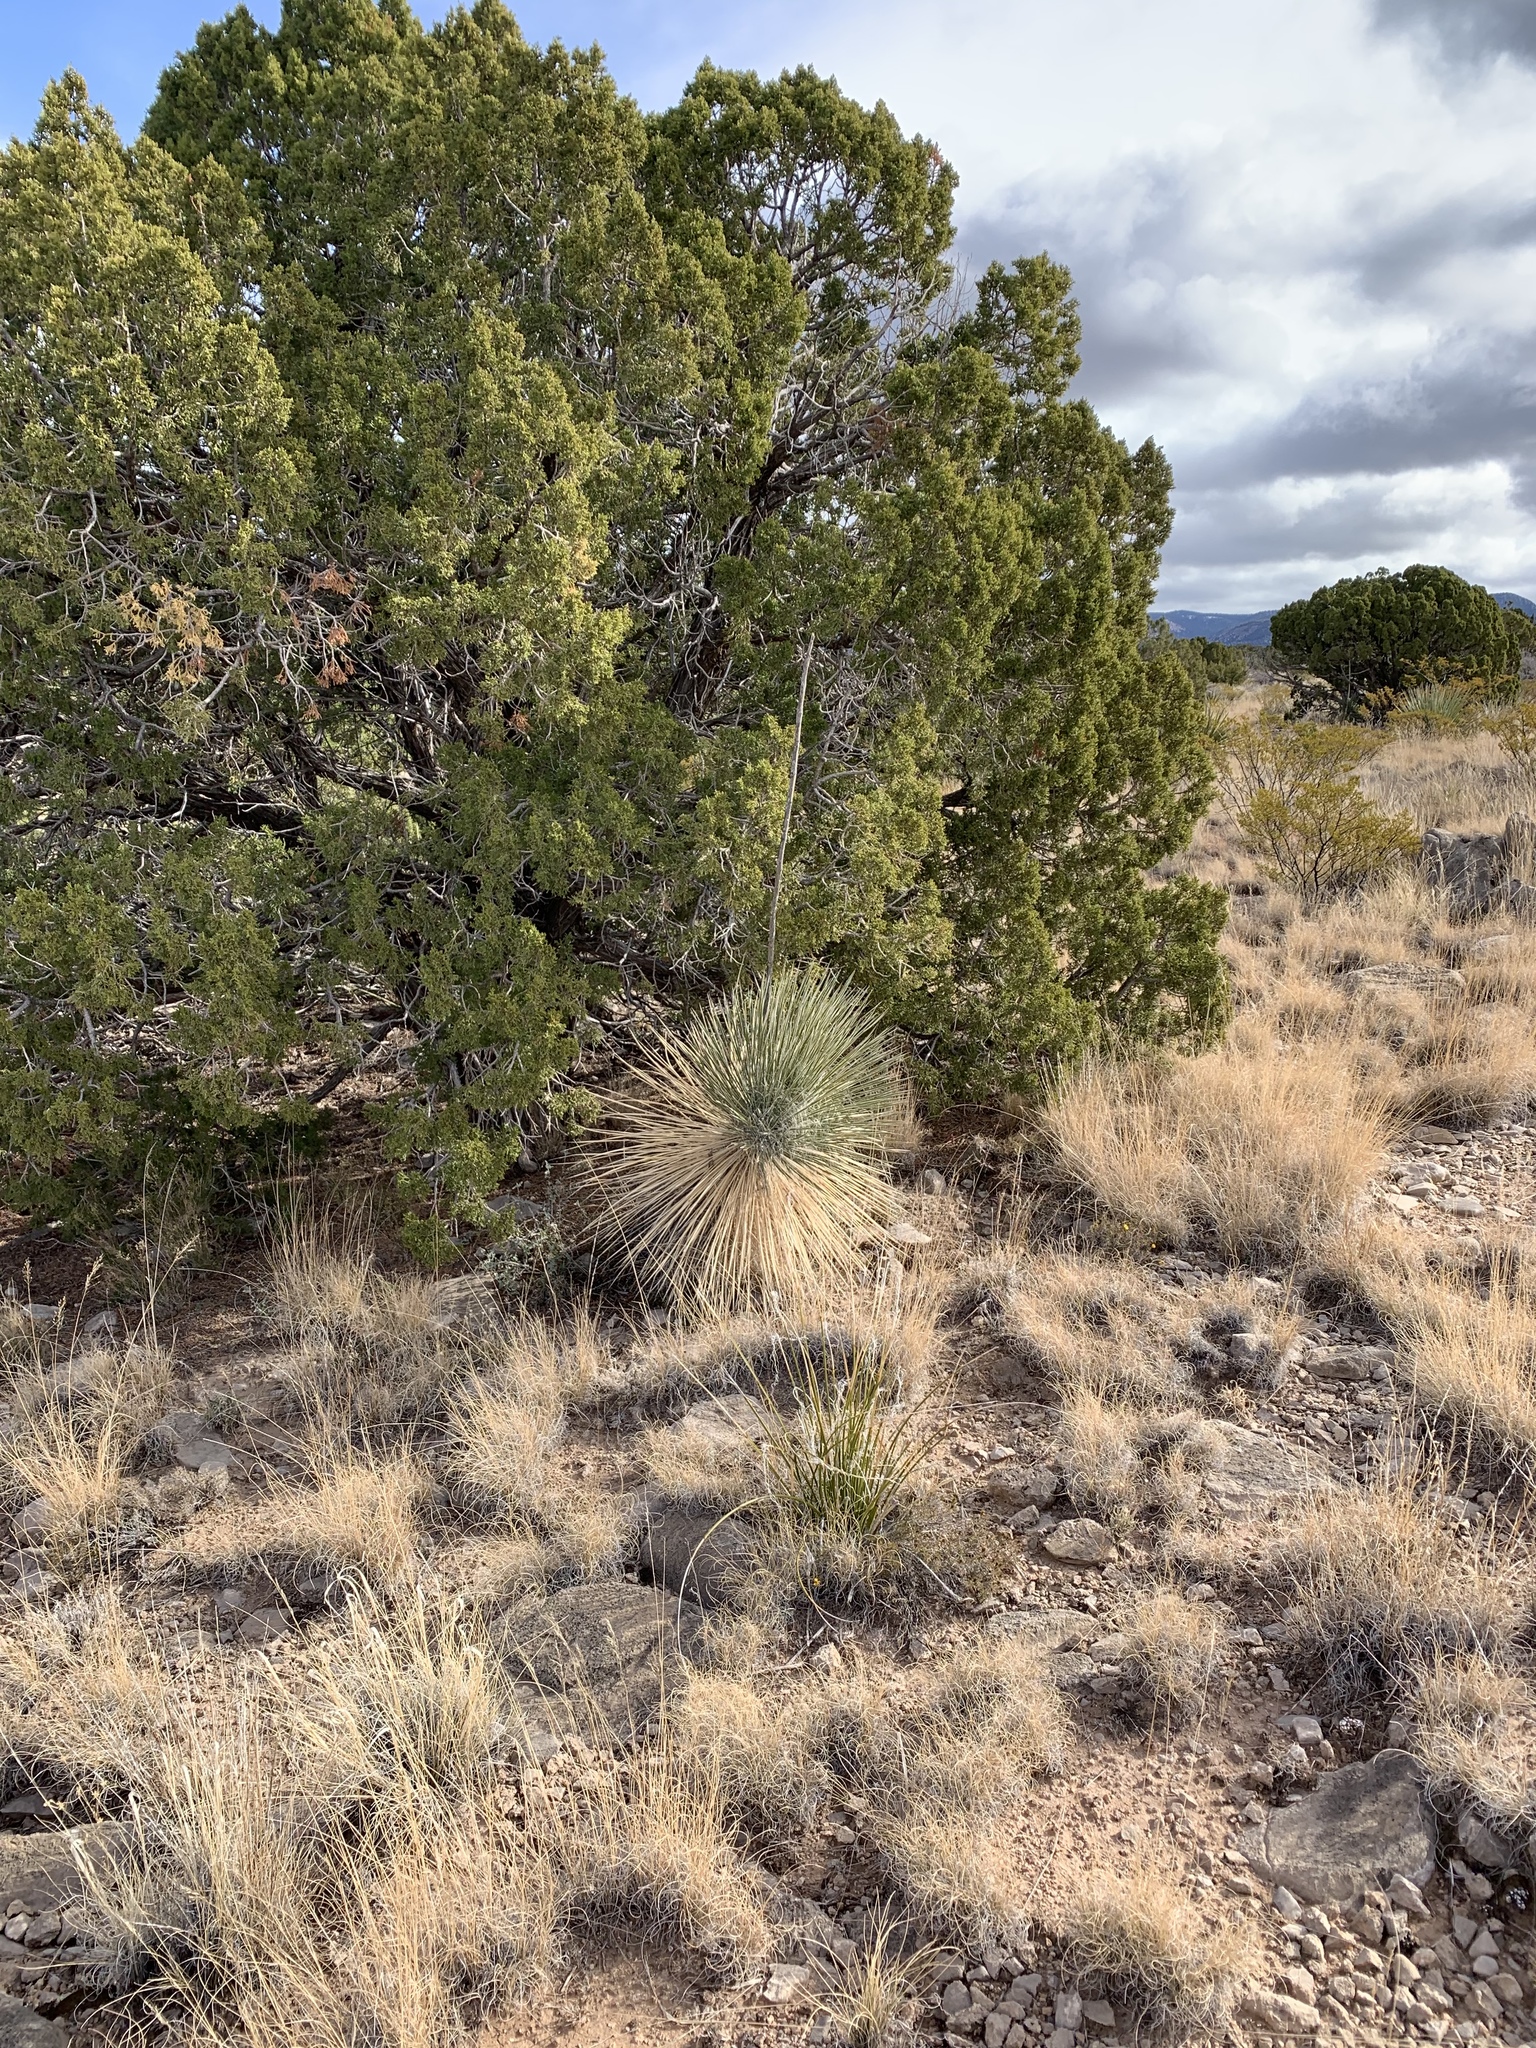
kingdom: Plantae
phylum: Tracheophyta
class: Liliopsida
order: Asparagales
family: Asparagaceae
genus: Yucca
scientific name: Yucca elata
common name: Palmella
